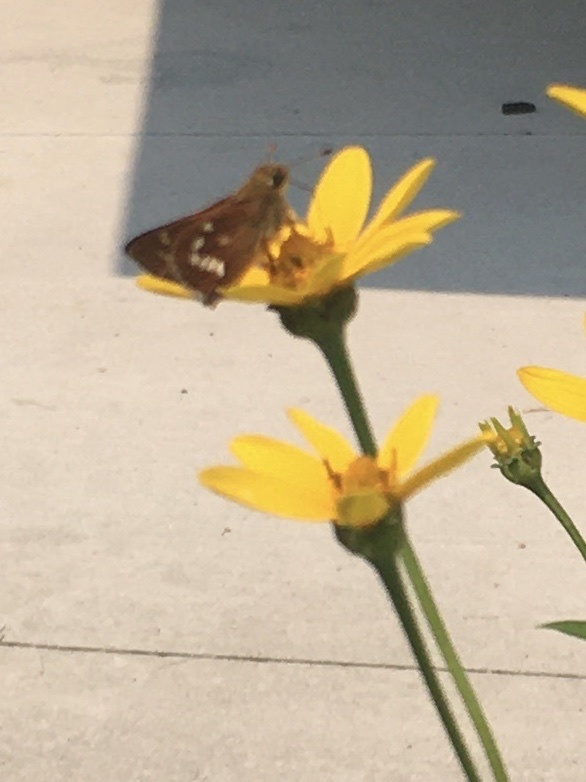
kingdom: Animalia
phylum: Arthropoda
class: Insecta
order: Lepidoptera
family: Hesperiidae
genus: Hesperia
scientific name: Hesperia leonardus
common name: Leonard's skipper
